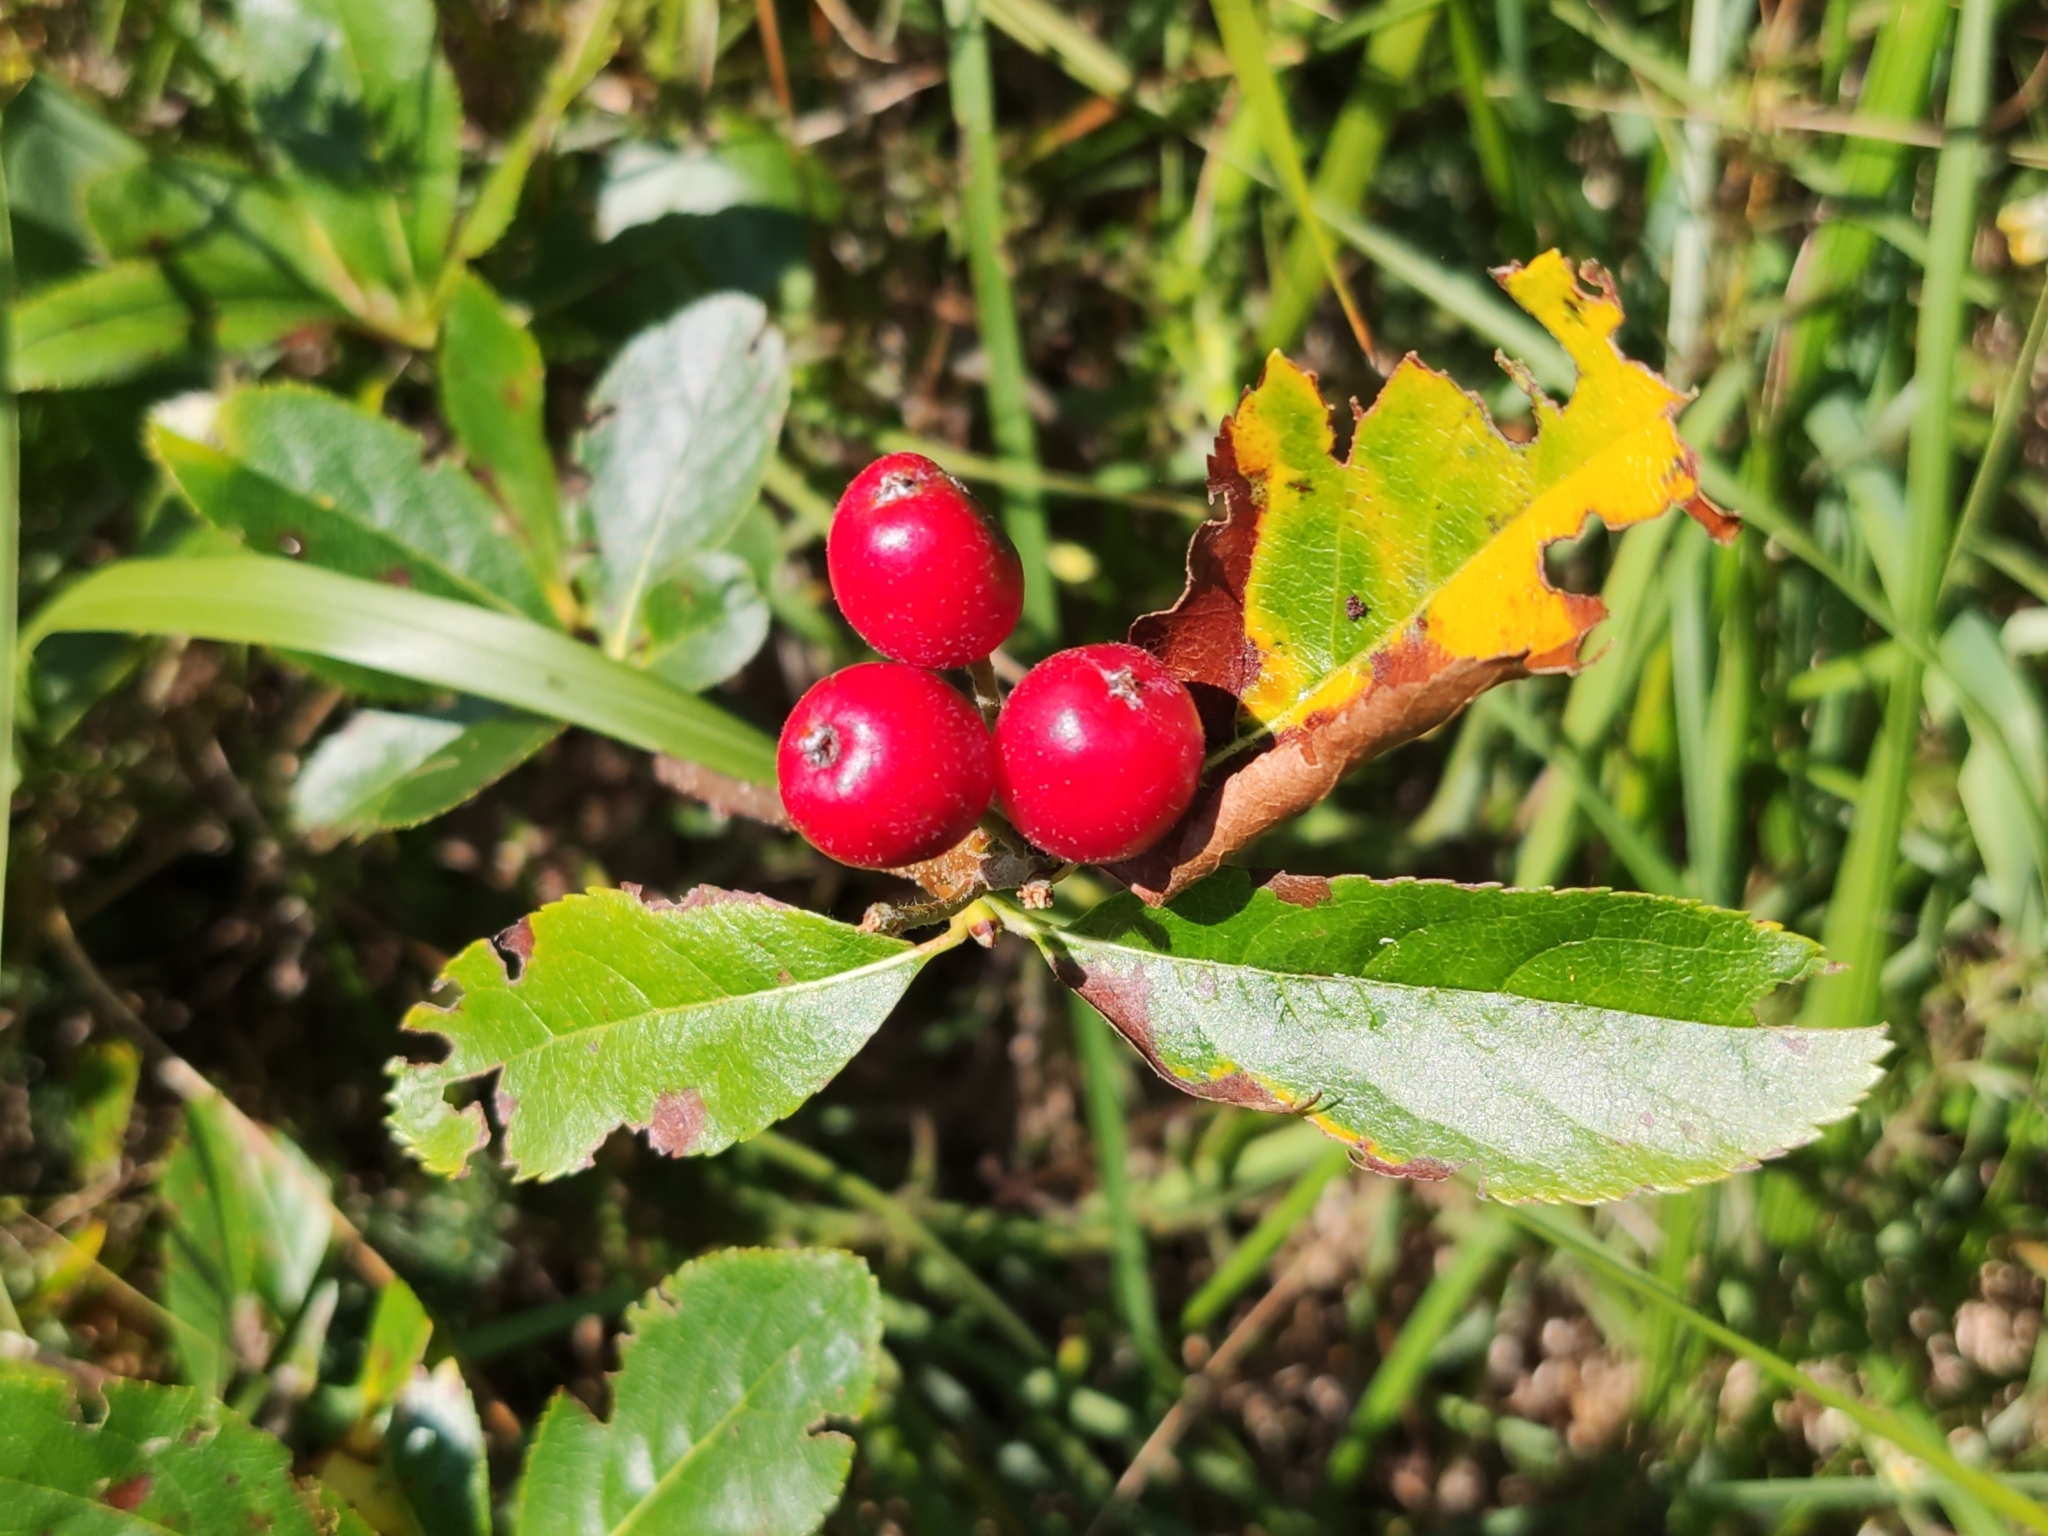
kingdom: Plantae
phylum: Tracheophyta
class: Magnoliopsida
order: Rosales
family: Rosaceae
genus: Chamaemespilus
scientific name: Chamaemespilus alpina
